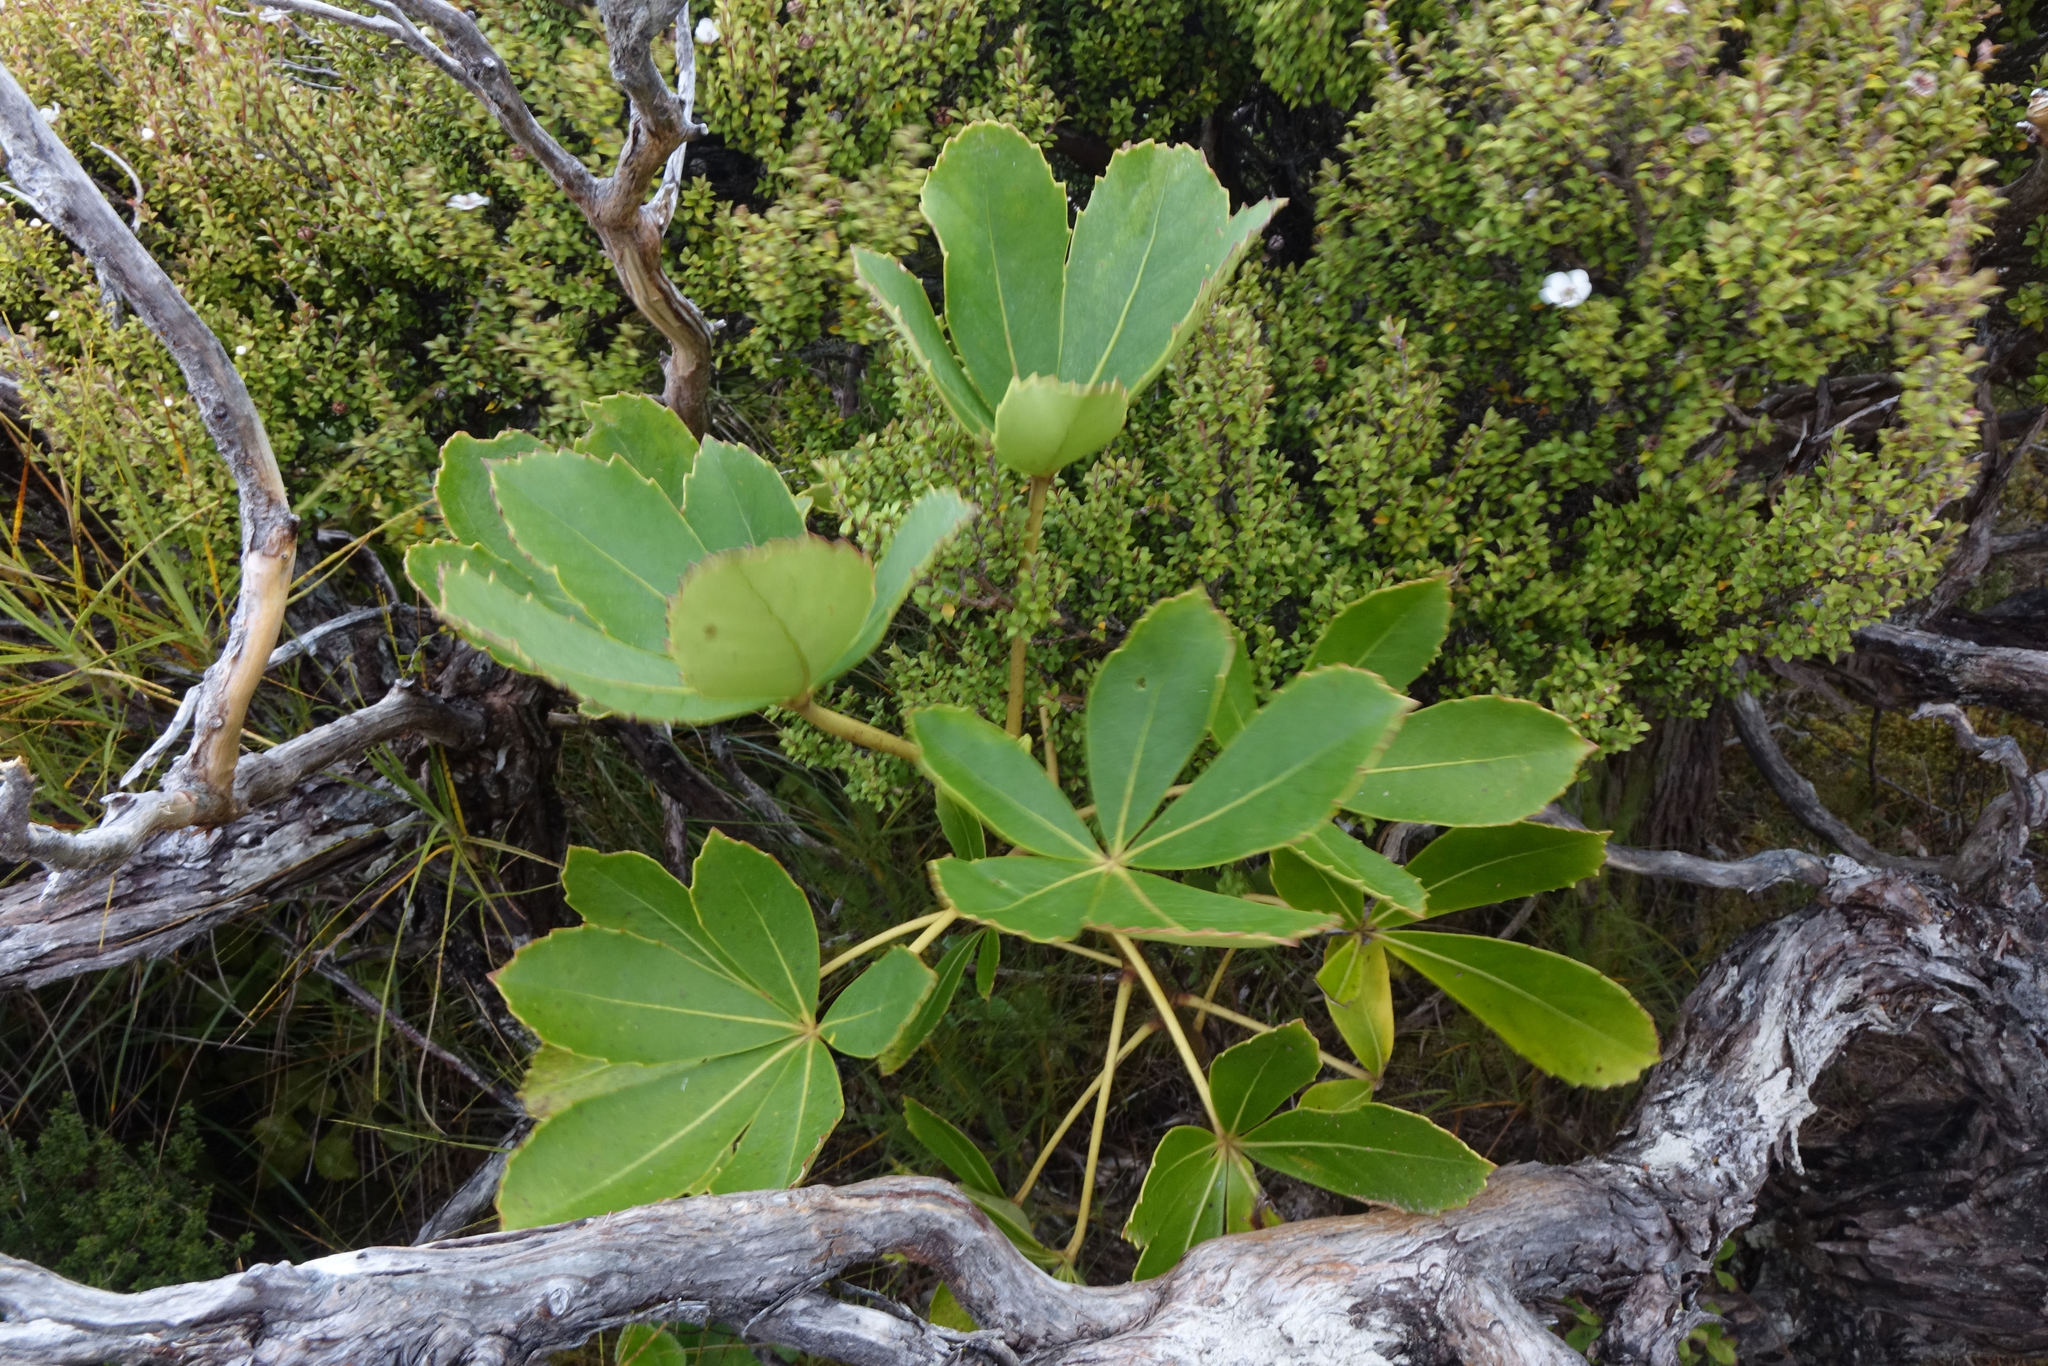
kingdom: Plantae
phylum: Tracheophyta
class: Magnoliopsida
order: Apiales
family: Araliaceae
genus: Neopanax
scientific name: Neopanax colensoi
